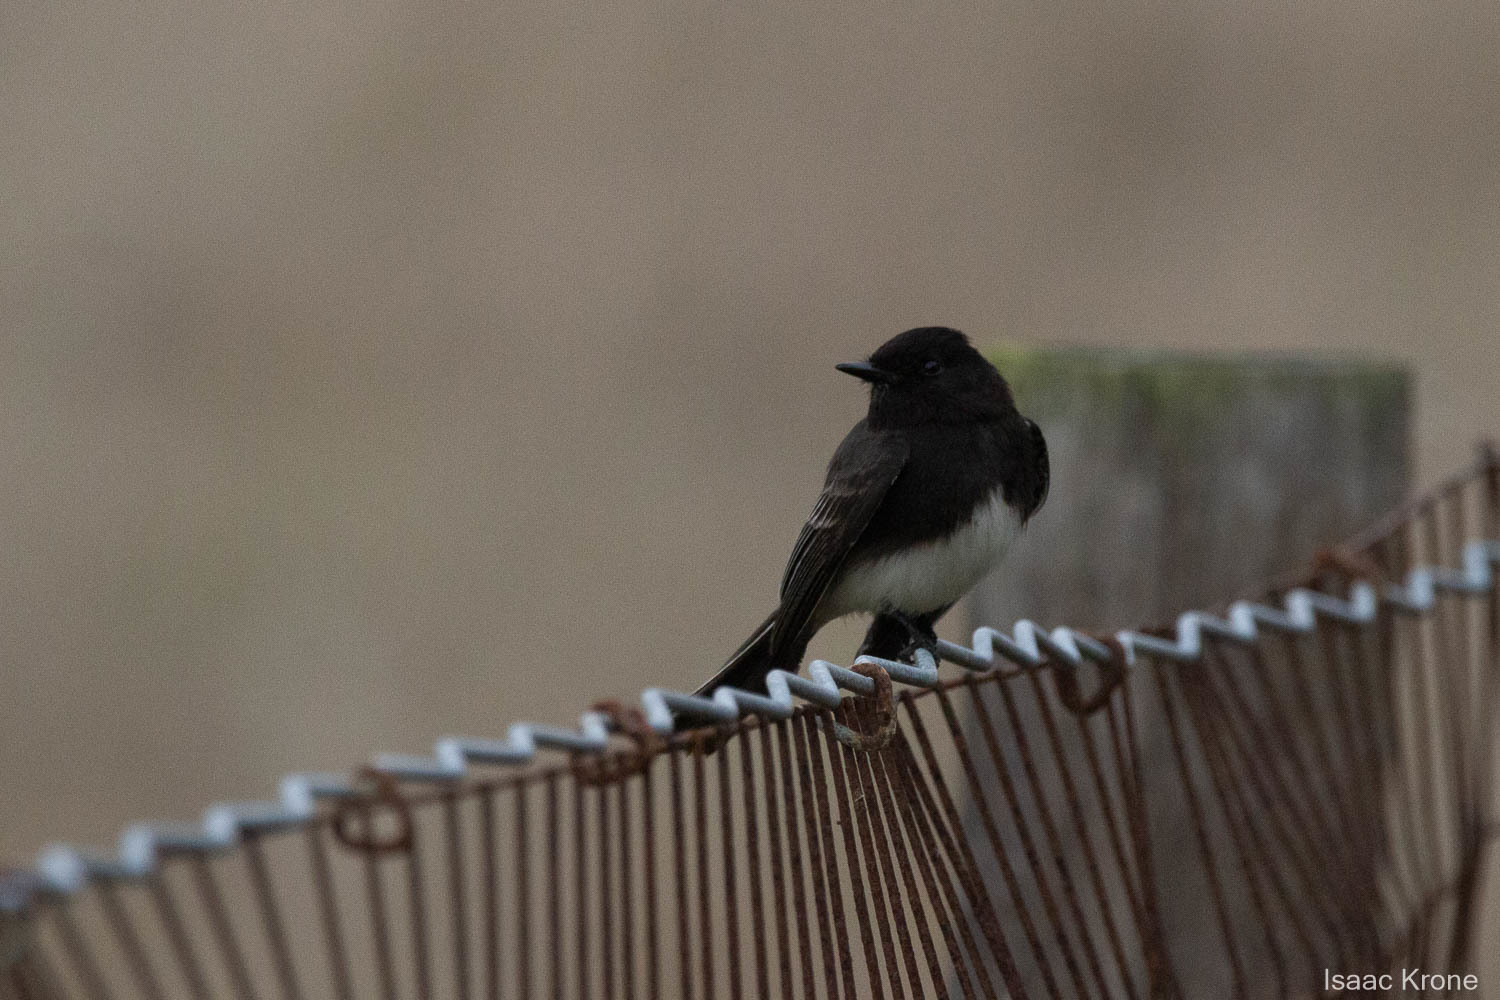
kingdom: Animalia
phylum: Chordata
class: Aves
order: Passeriformes
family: Tyrannidae
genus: Sayornis
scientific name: Sayornis nigricans
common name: Black phoebe
